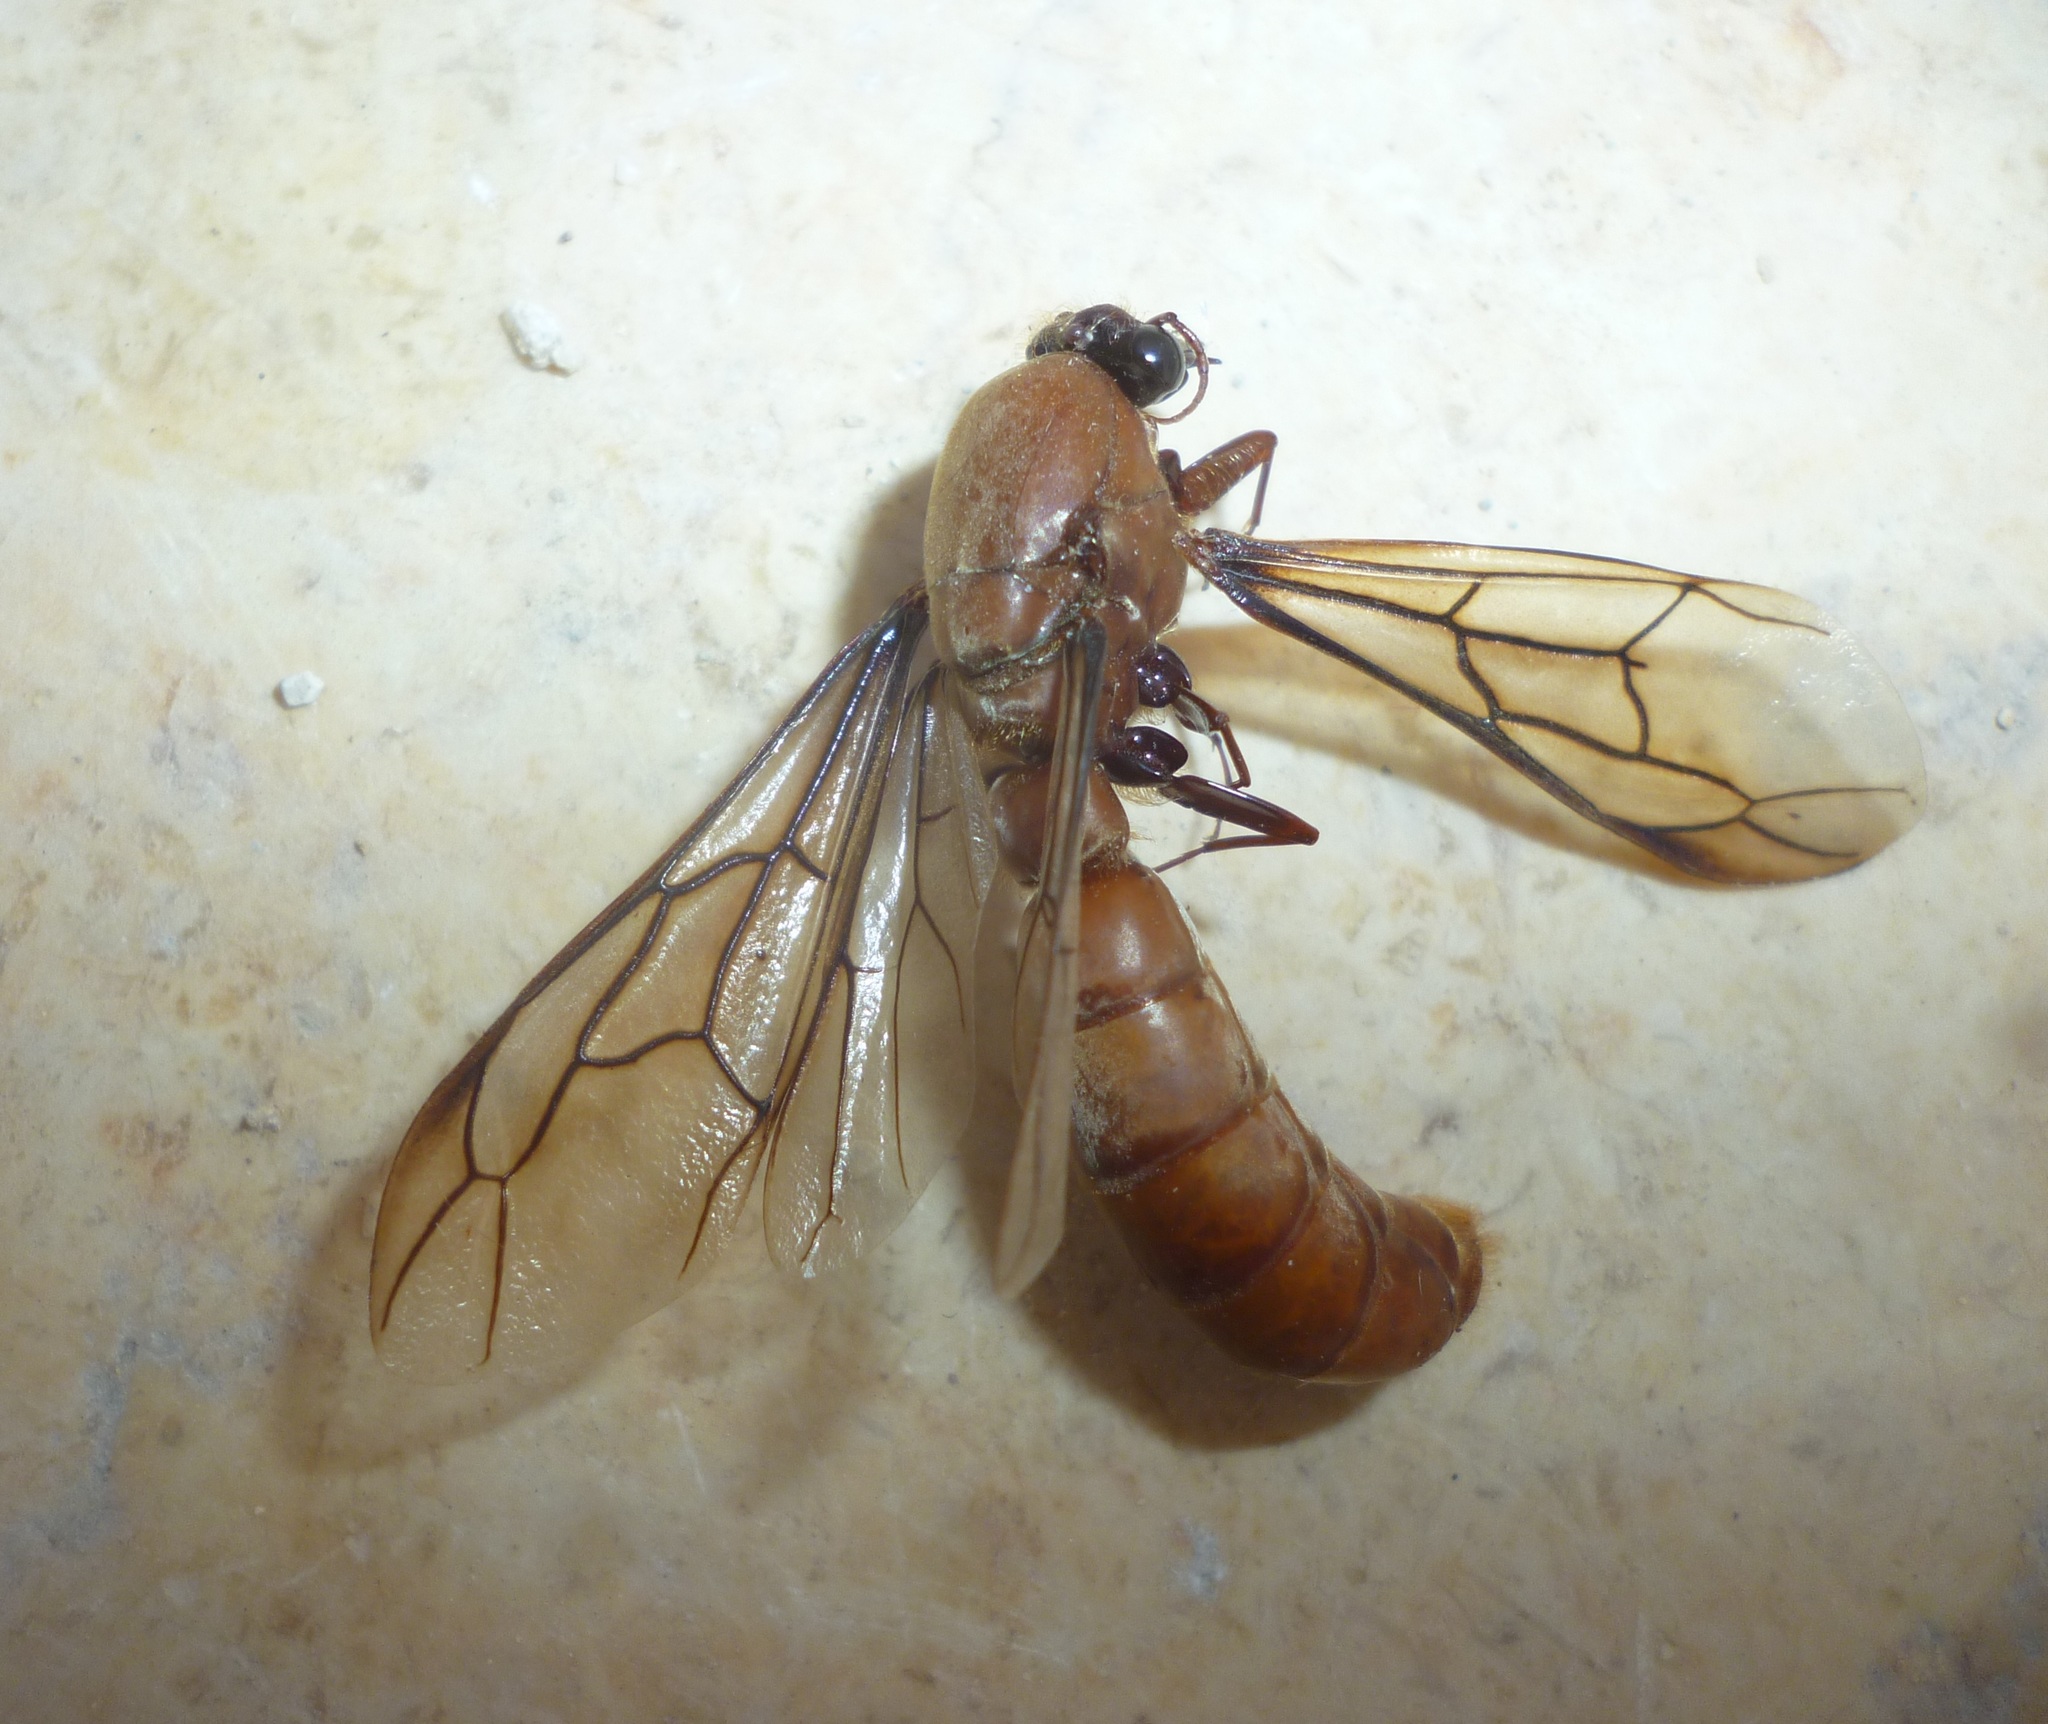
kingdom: Animalia
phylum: Arthropoda
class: Insecta
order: Hymenoptera
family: Formicidae
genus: Dorylus
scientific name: Dorylus fulvus
